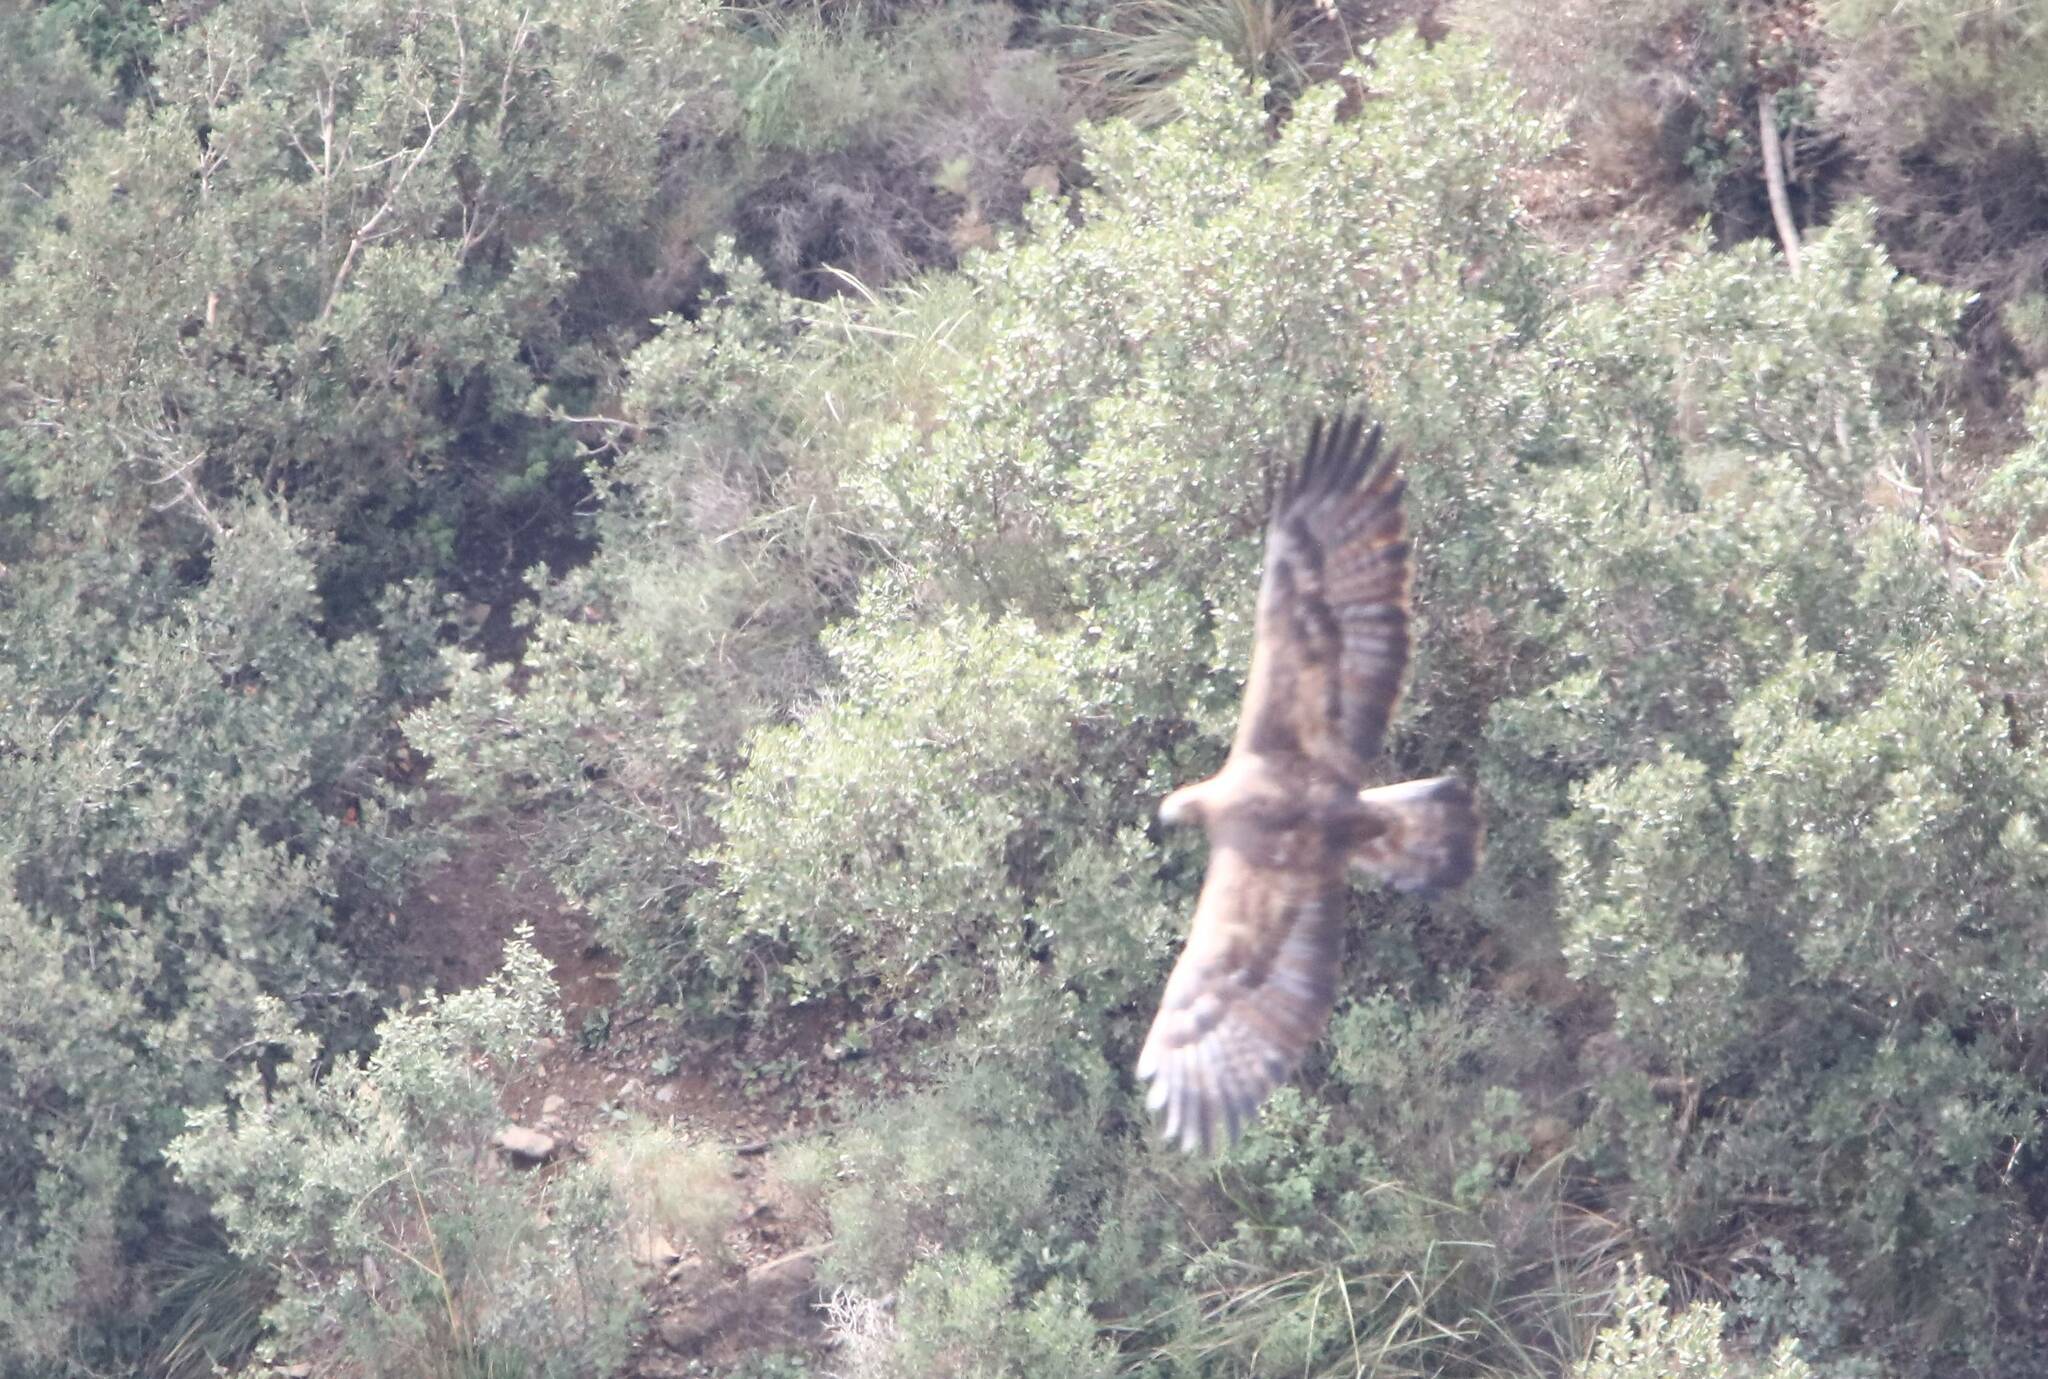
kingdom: Animalia
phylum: Chordata
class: Aves
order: Accipitriformes
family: Accipitridae
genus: Aquila
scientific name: Aquila chrysaetos
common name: Golden eagle
